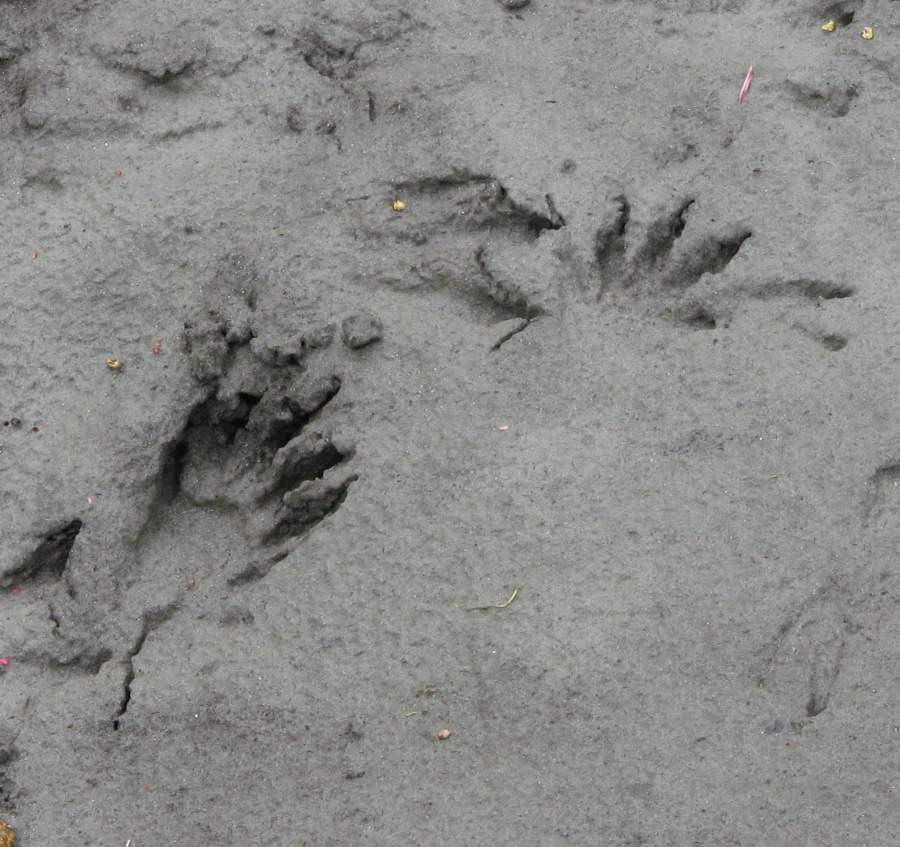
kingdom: Animalia
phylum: Chordata
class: Mammalia
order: Carnivora
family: Procyonidae
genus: Procyon
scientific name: Procyon lotor
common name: Raccoon
